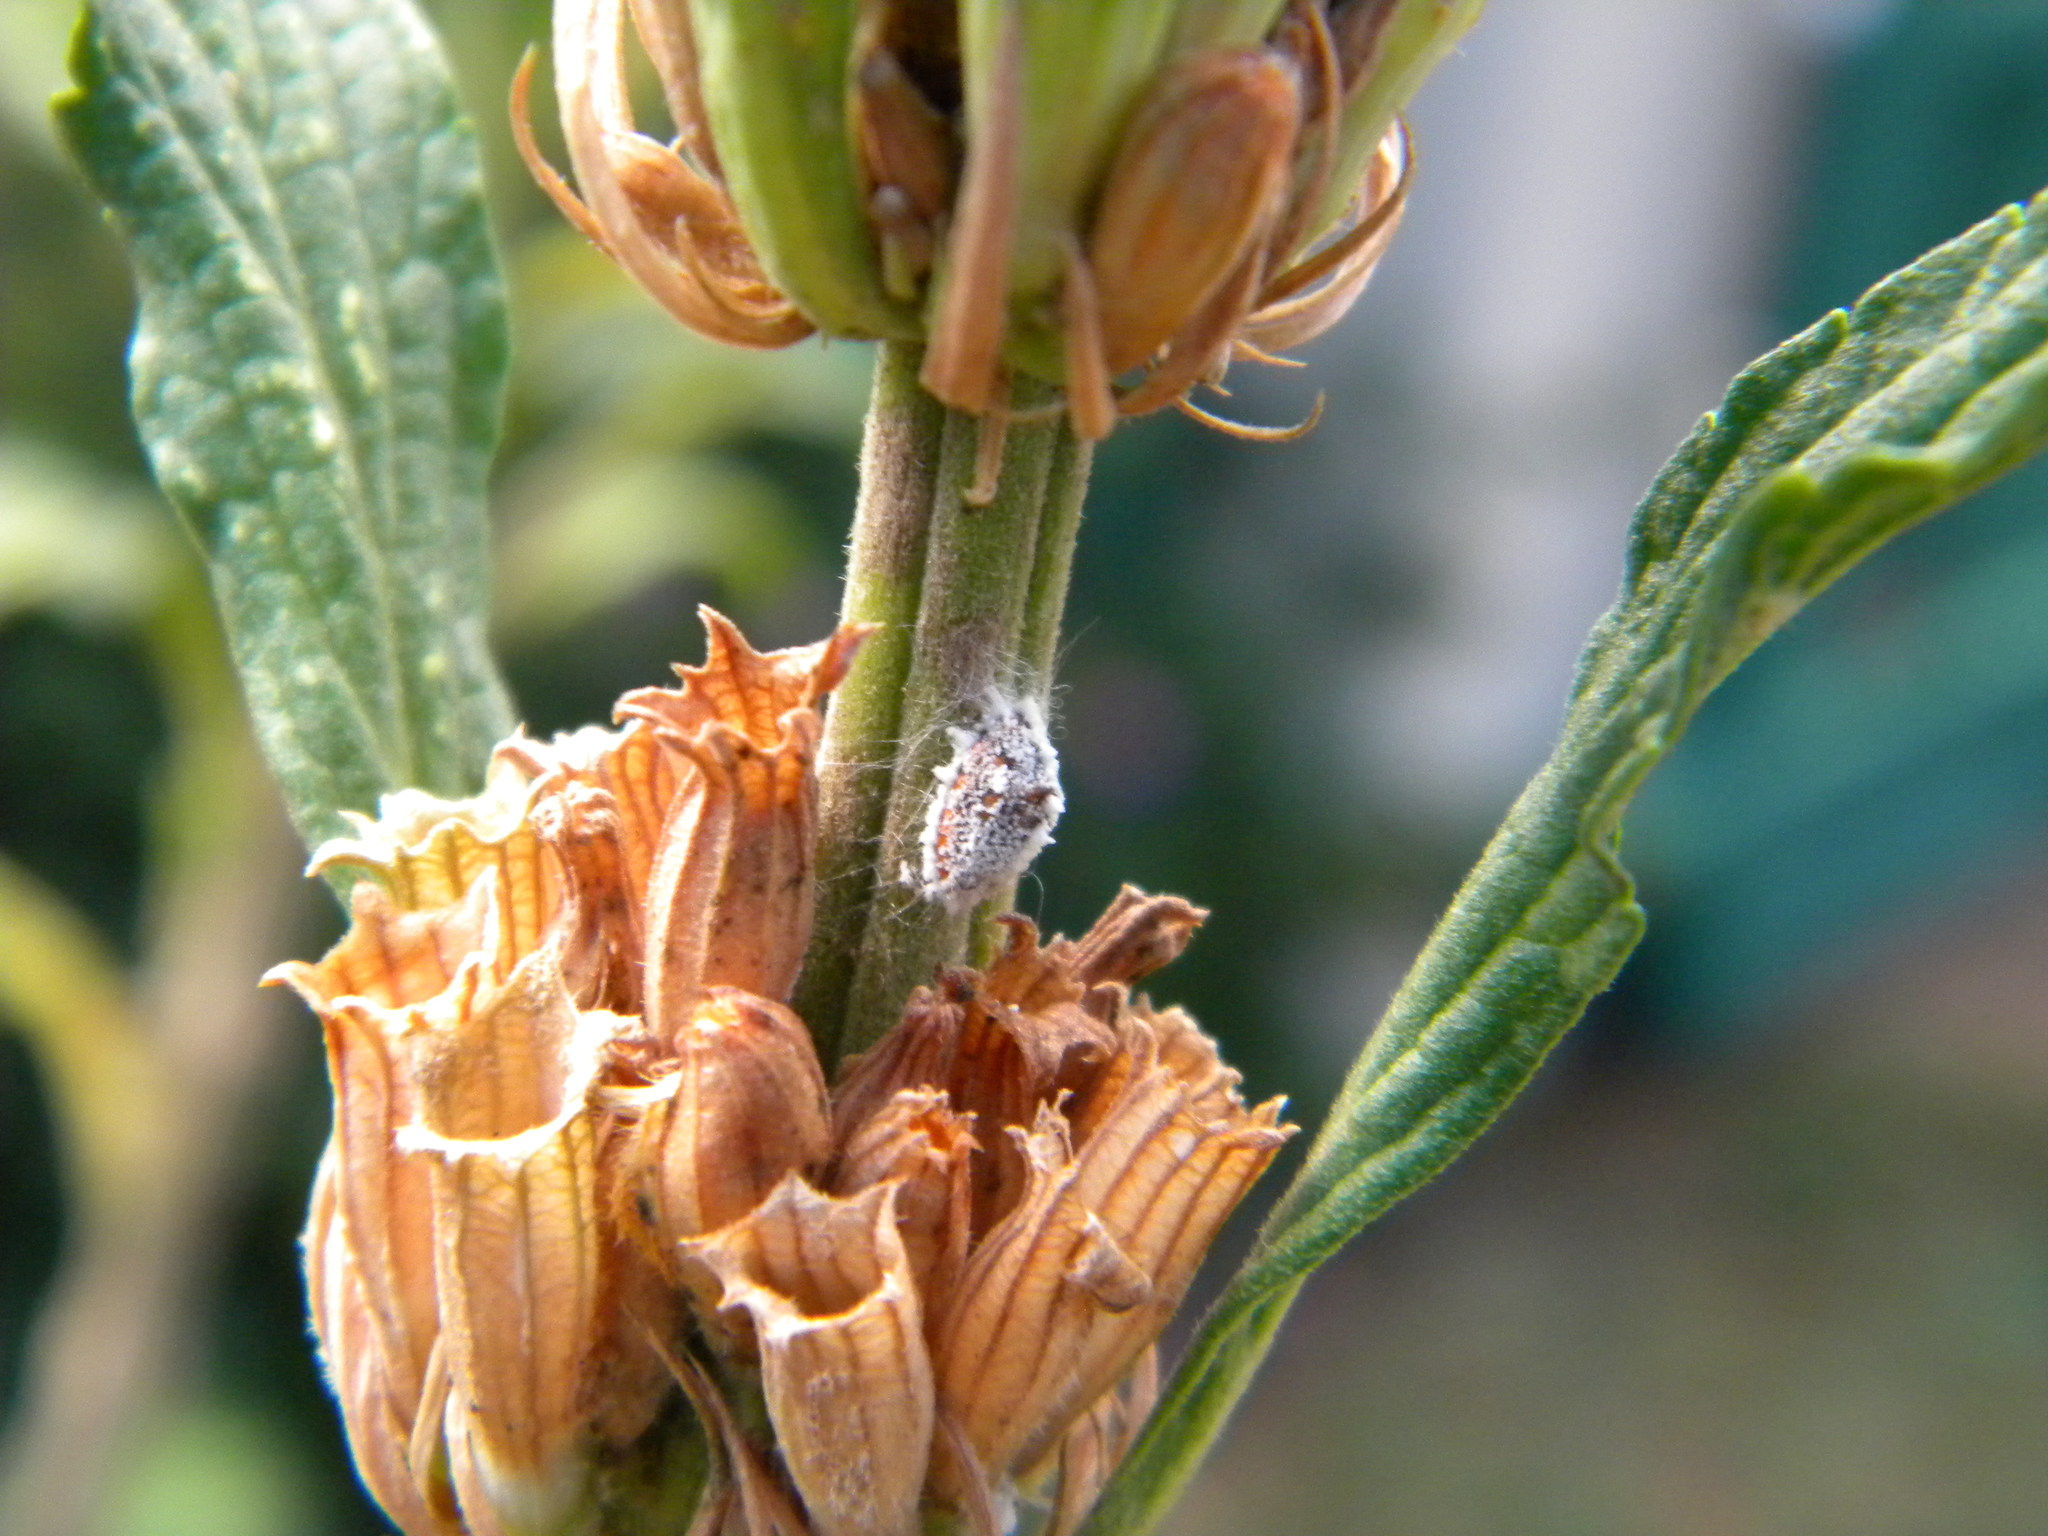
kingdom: Animalia
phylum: Arthropoda
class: Insecta
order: Hemiptera
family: Margarodidae
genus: Icerya
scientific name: Icerya purchasi
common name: Cottony cushion scale
